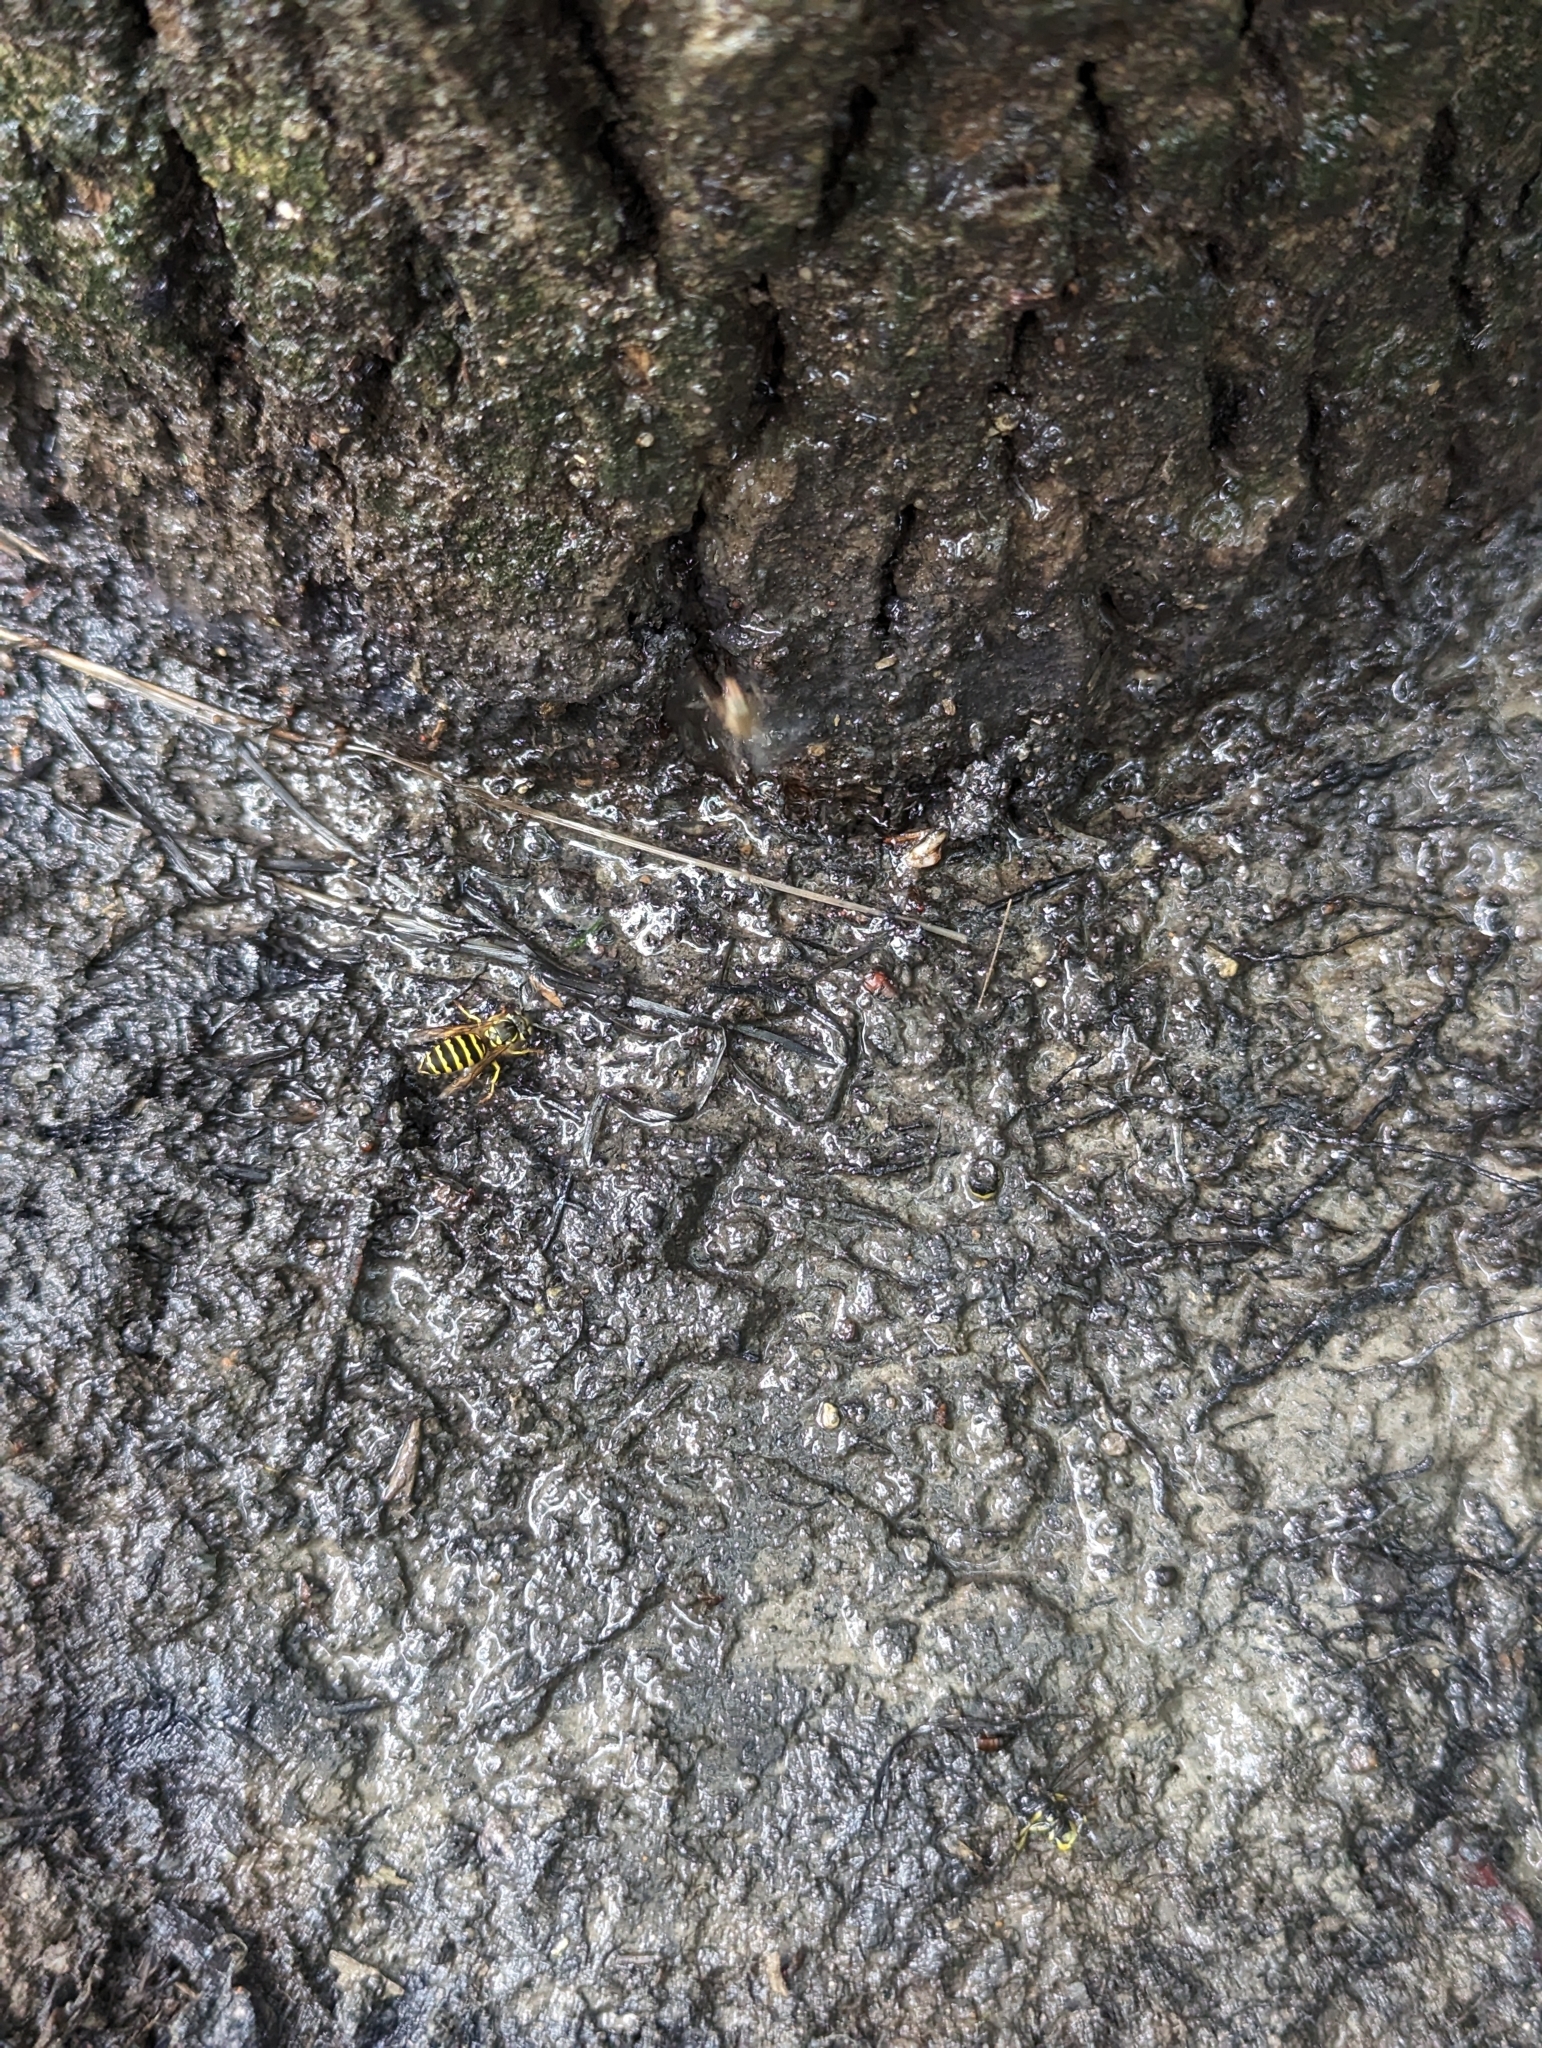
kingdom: Animalia
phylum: Arthropoda
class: Insecta
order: Hymenoptera
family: Vespidae
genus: Vespula
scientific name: Vespula maculifrons
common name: Eastern yellowjacket
